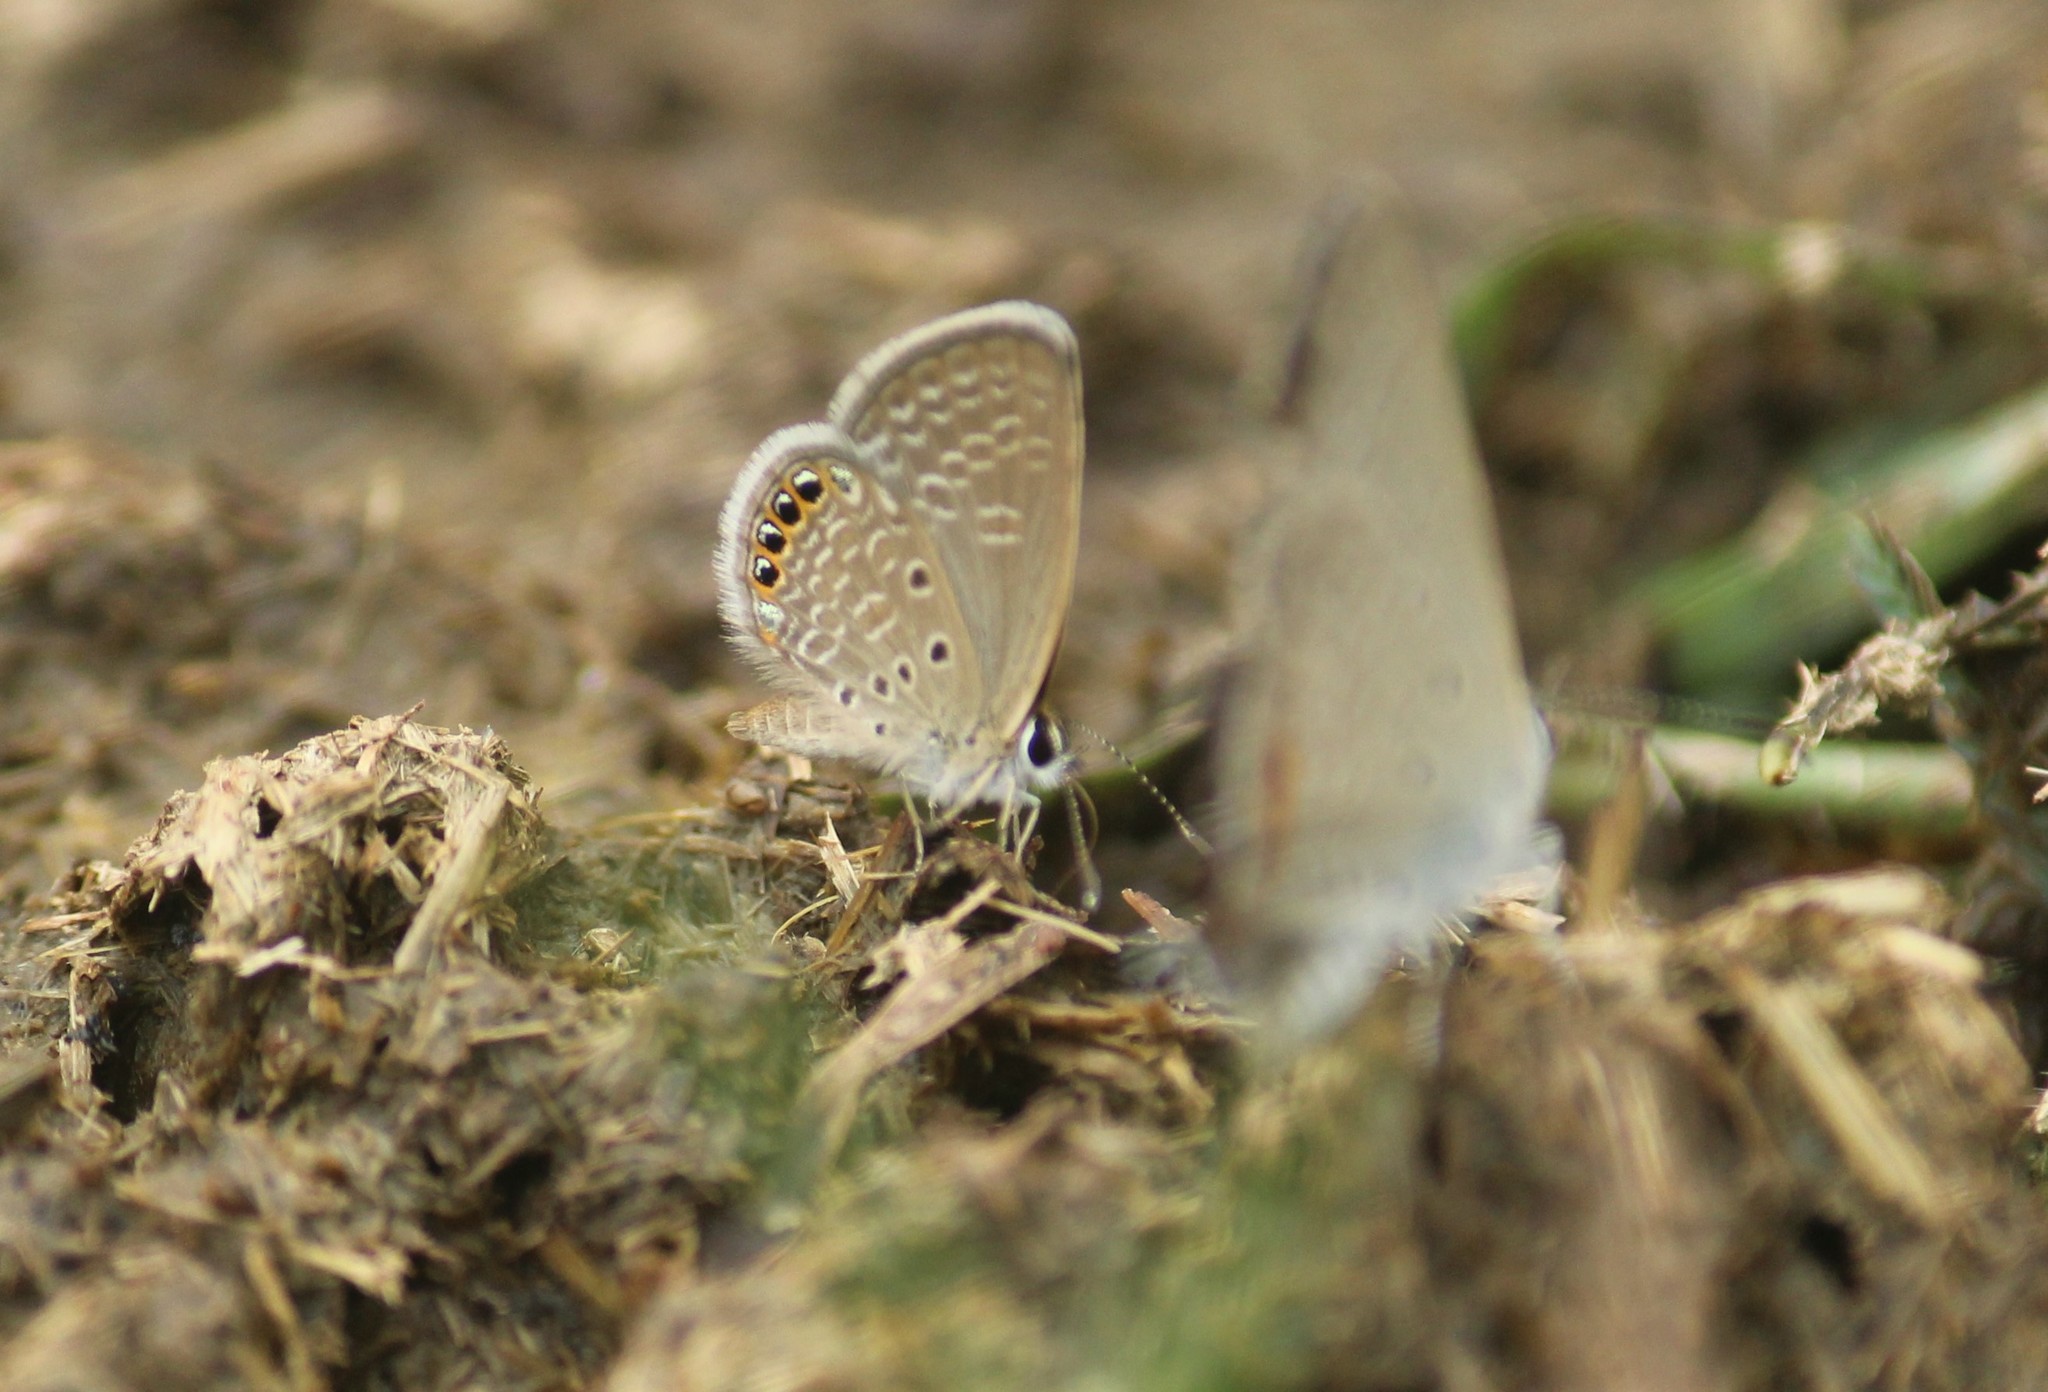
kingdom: Animalia
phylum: Arthropoda
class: Insecta
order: Lepidoptera
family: Lycaenidae
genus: Freyeria
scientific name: Freyeria putli
